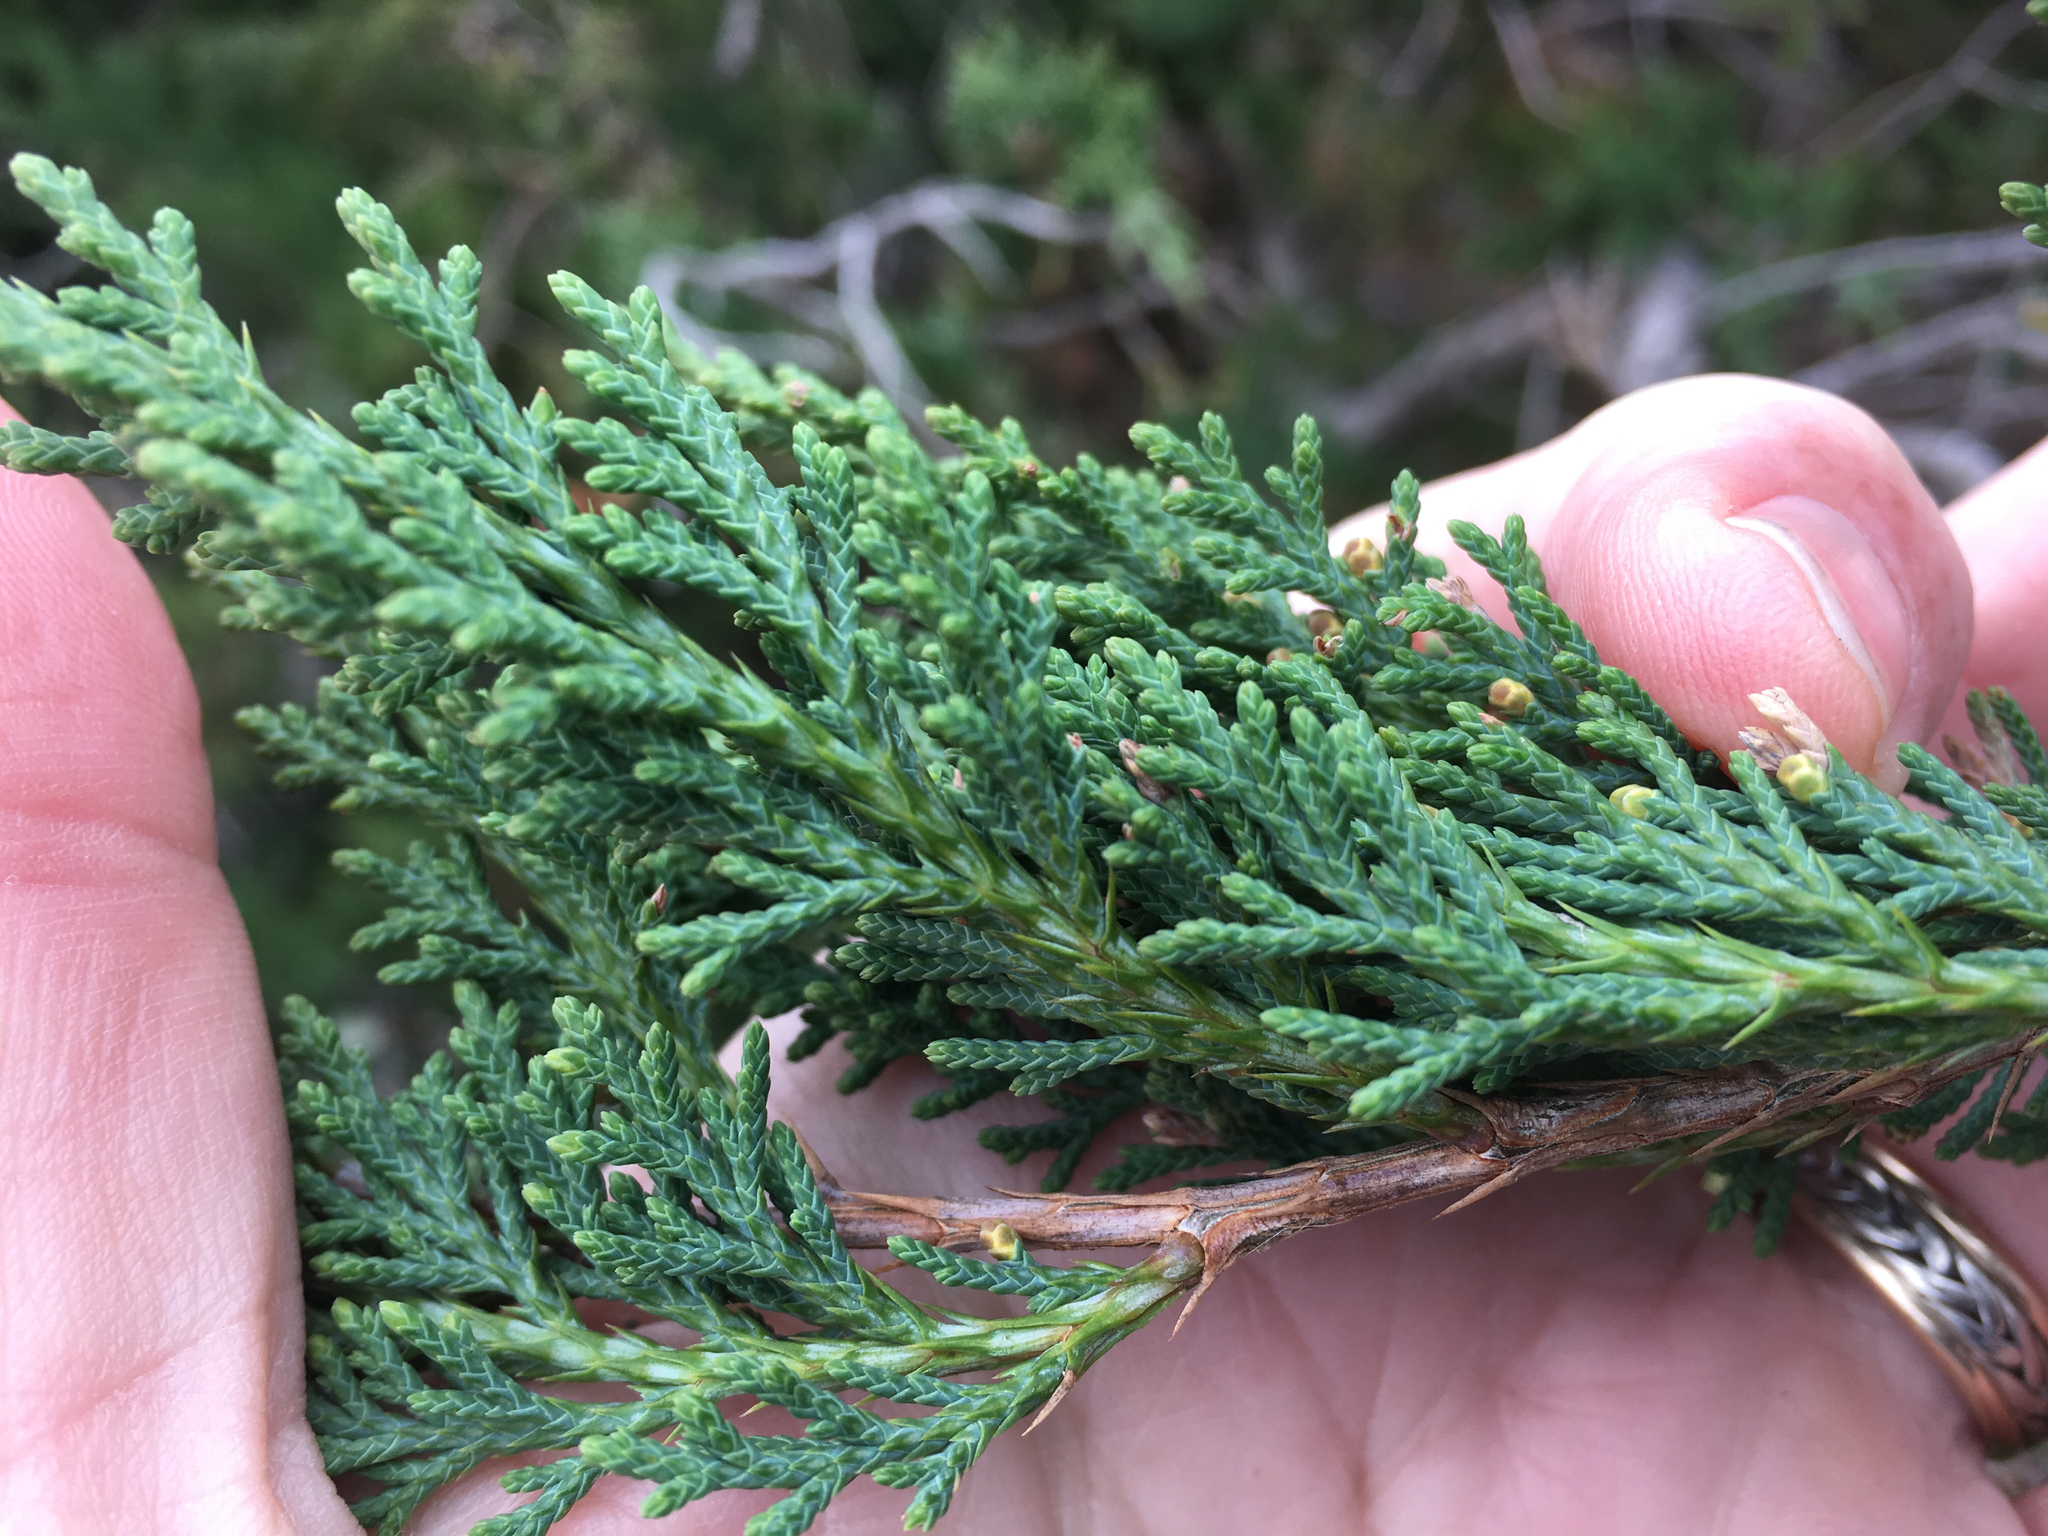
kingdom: Plantae
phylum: Tracheophyta
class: Pinopsida
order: Pinales
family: Cupressaceae
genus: Juniperus
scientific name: Juniperus virginiana
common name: Red juniper
